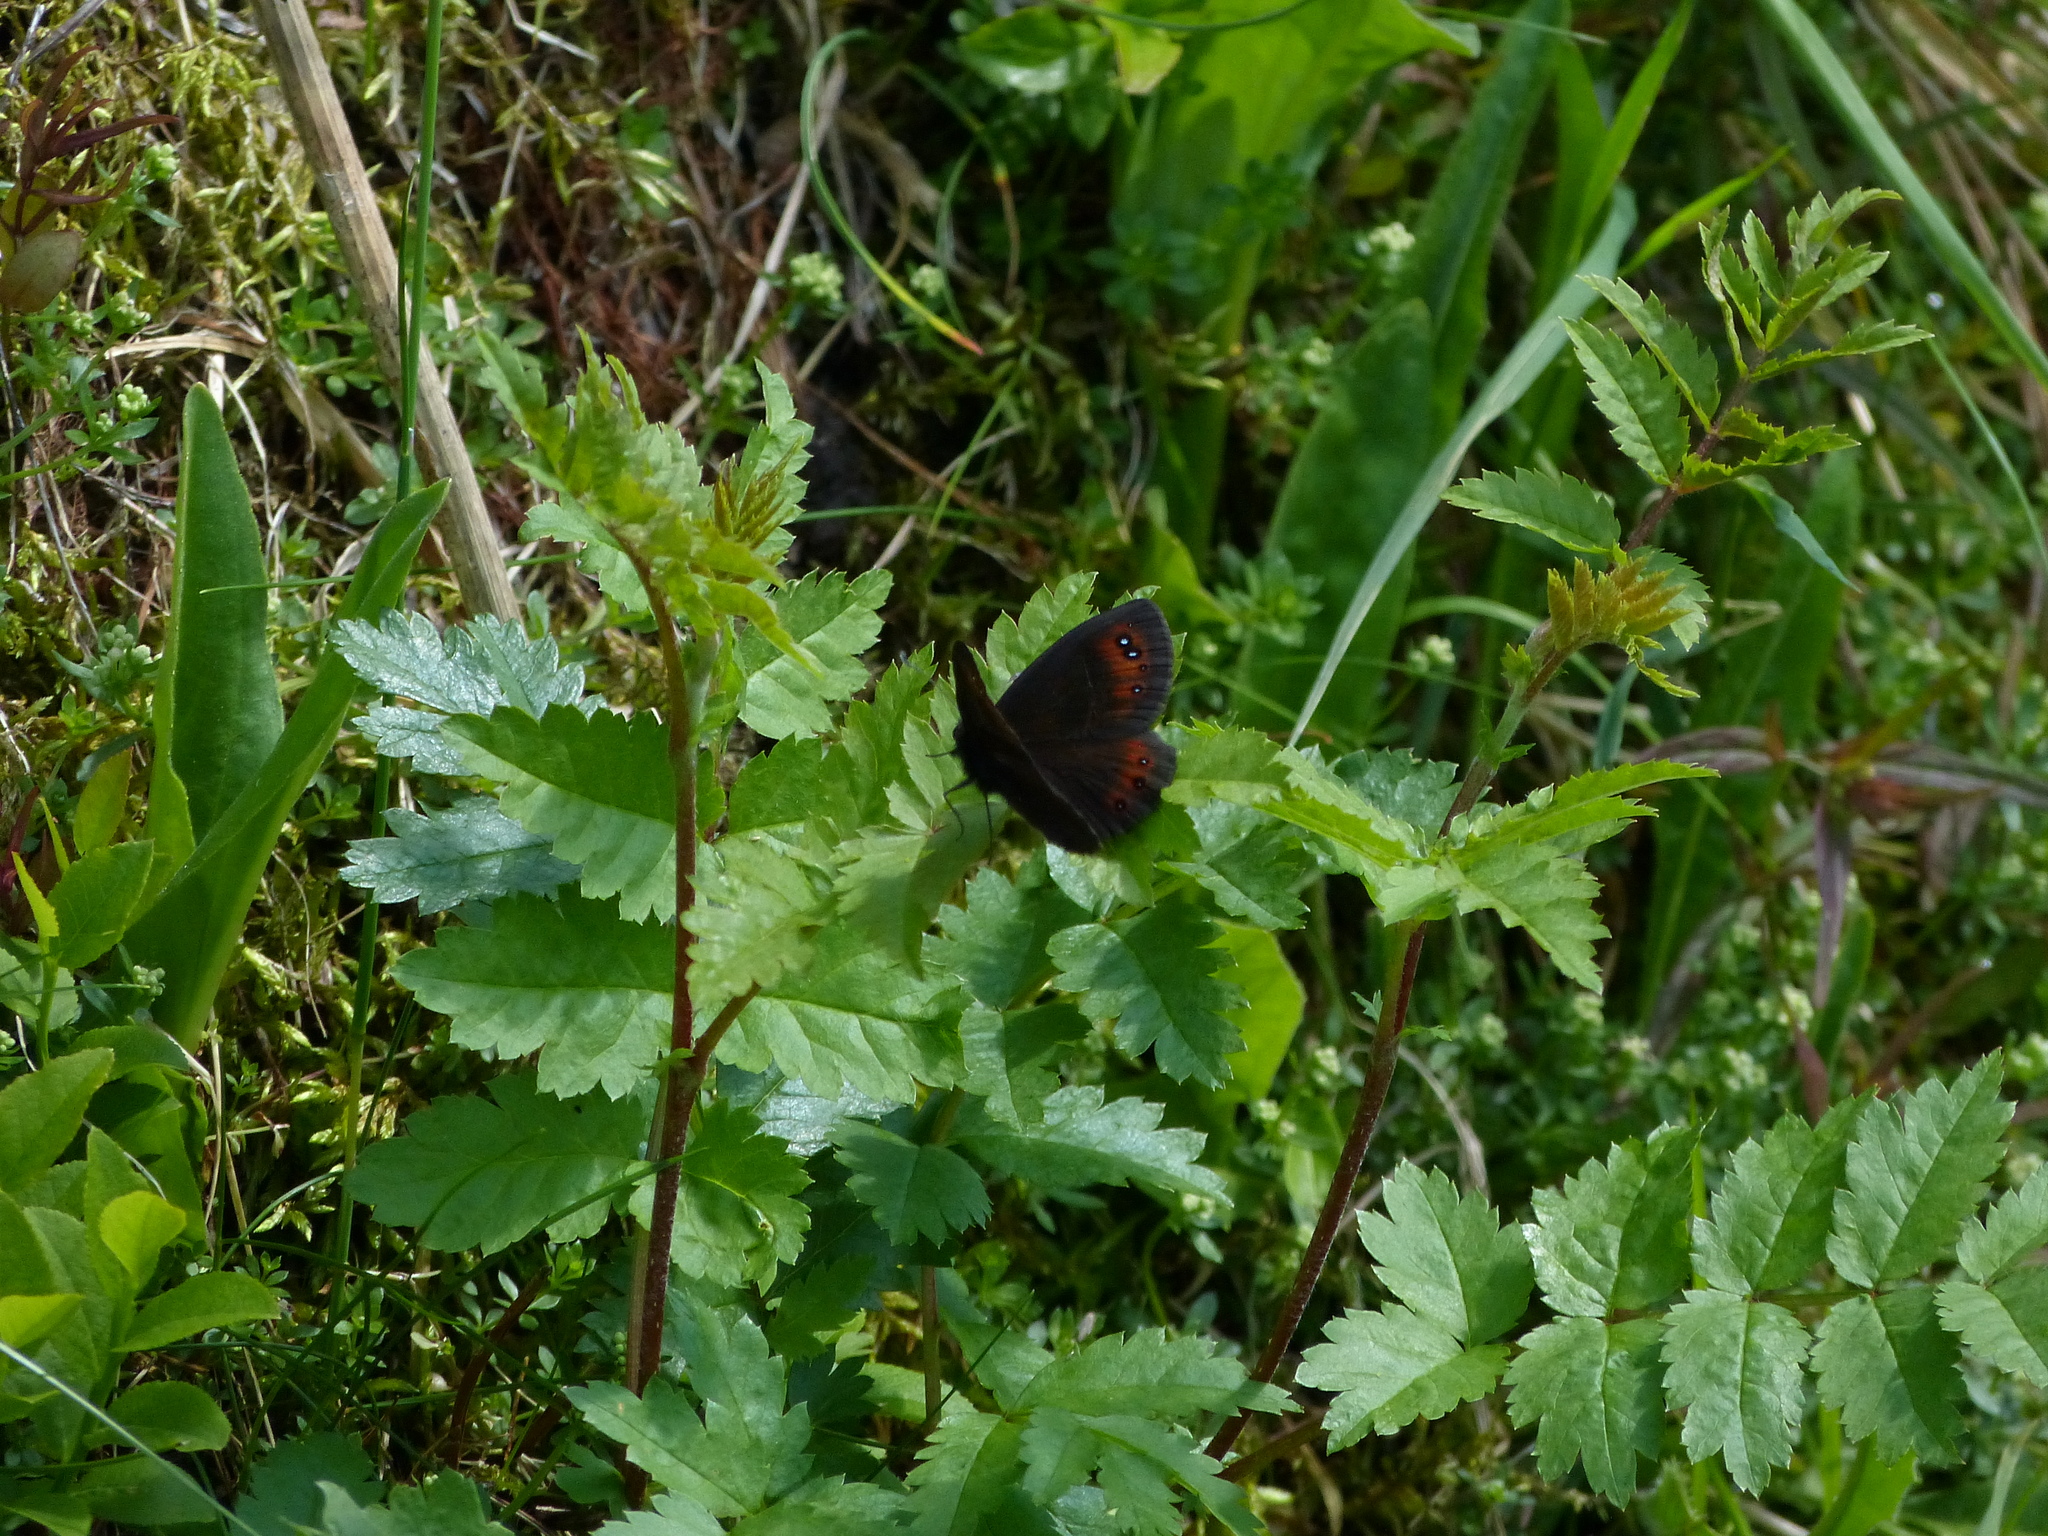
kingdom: Animalia
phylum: Arthropoda
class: Insecta
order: Lepidoptera
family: Nymphalidae
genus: Erebia
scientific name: Erebia meolans
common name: Piedmont ringlet
